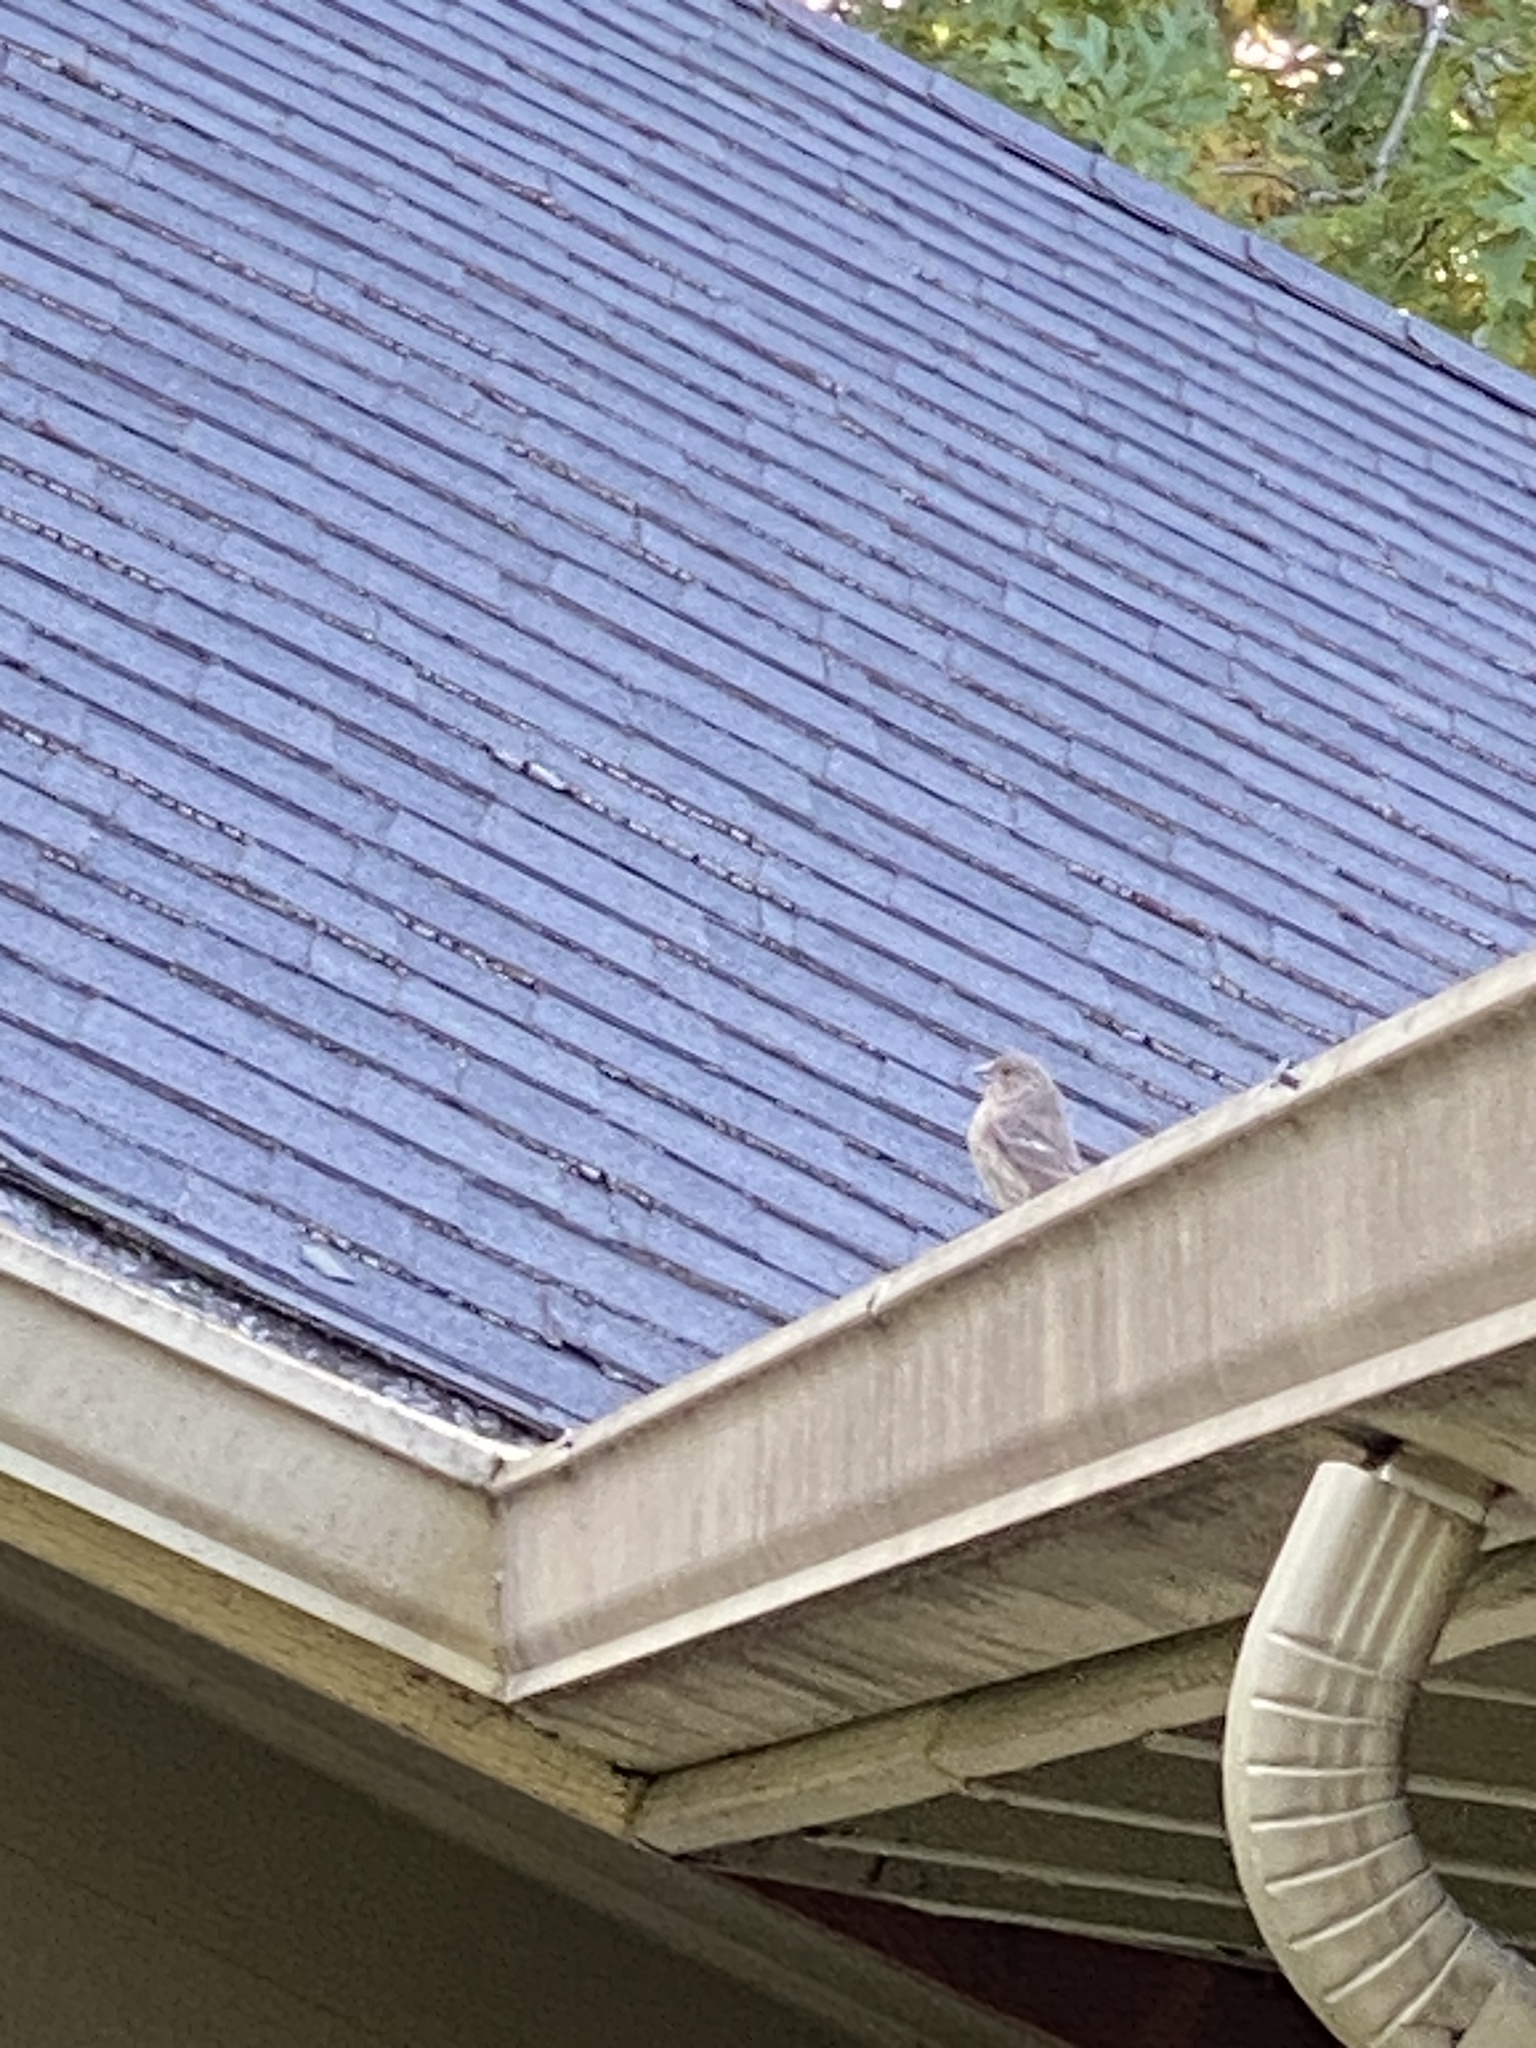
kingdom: Animalia
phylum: Chordata
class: Aves
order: Passeriformes
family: Fringillidae
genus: Haemorhous
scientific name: Haemorhous mexicanus
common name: House finch
